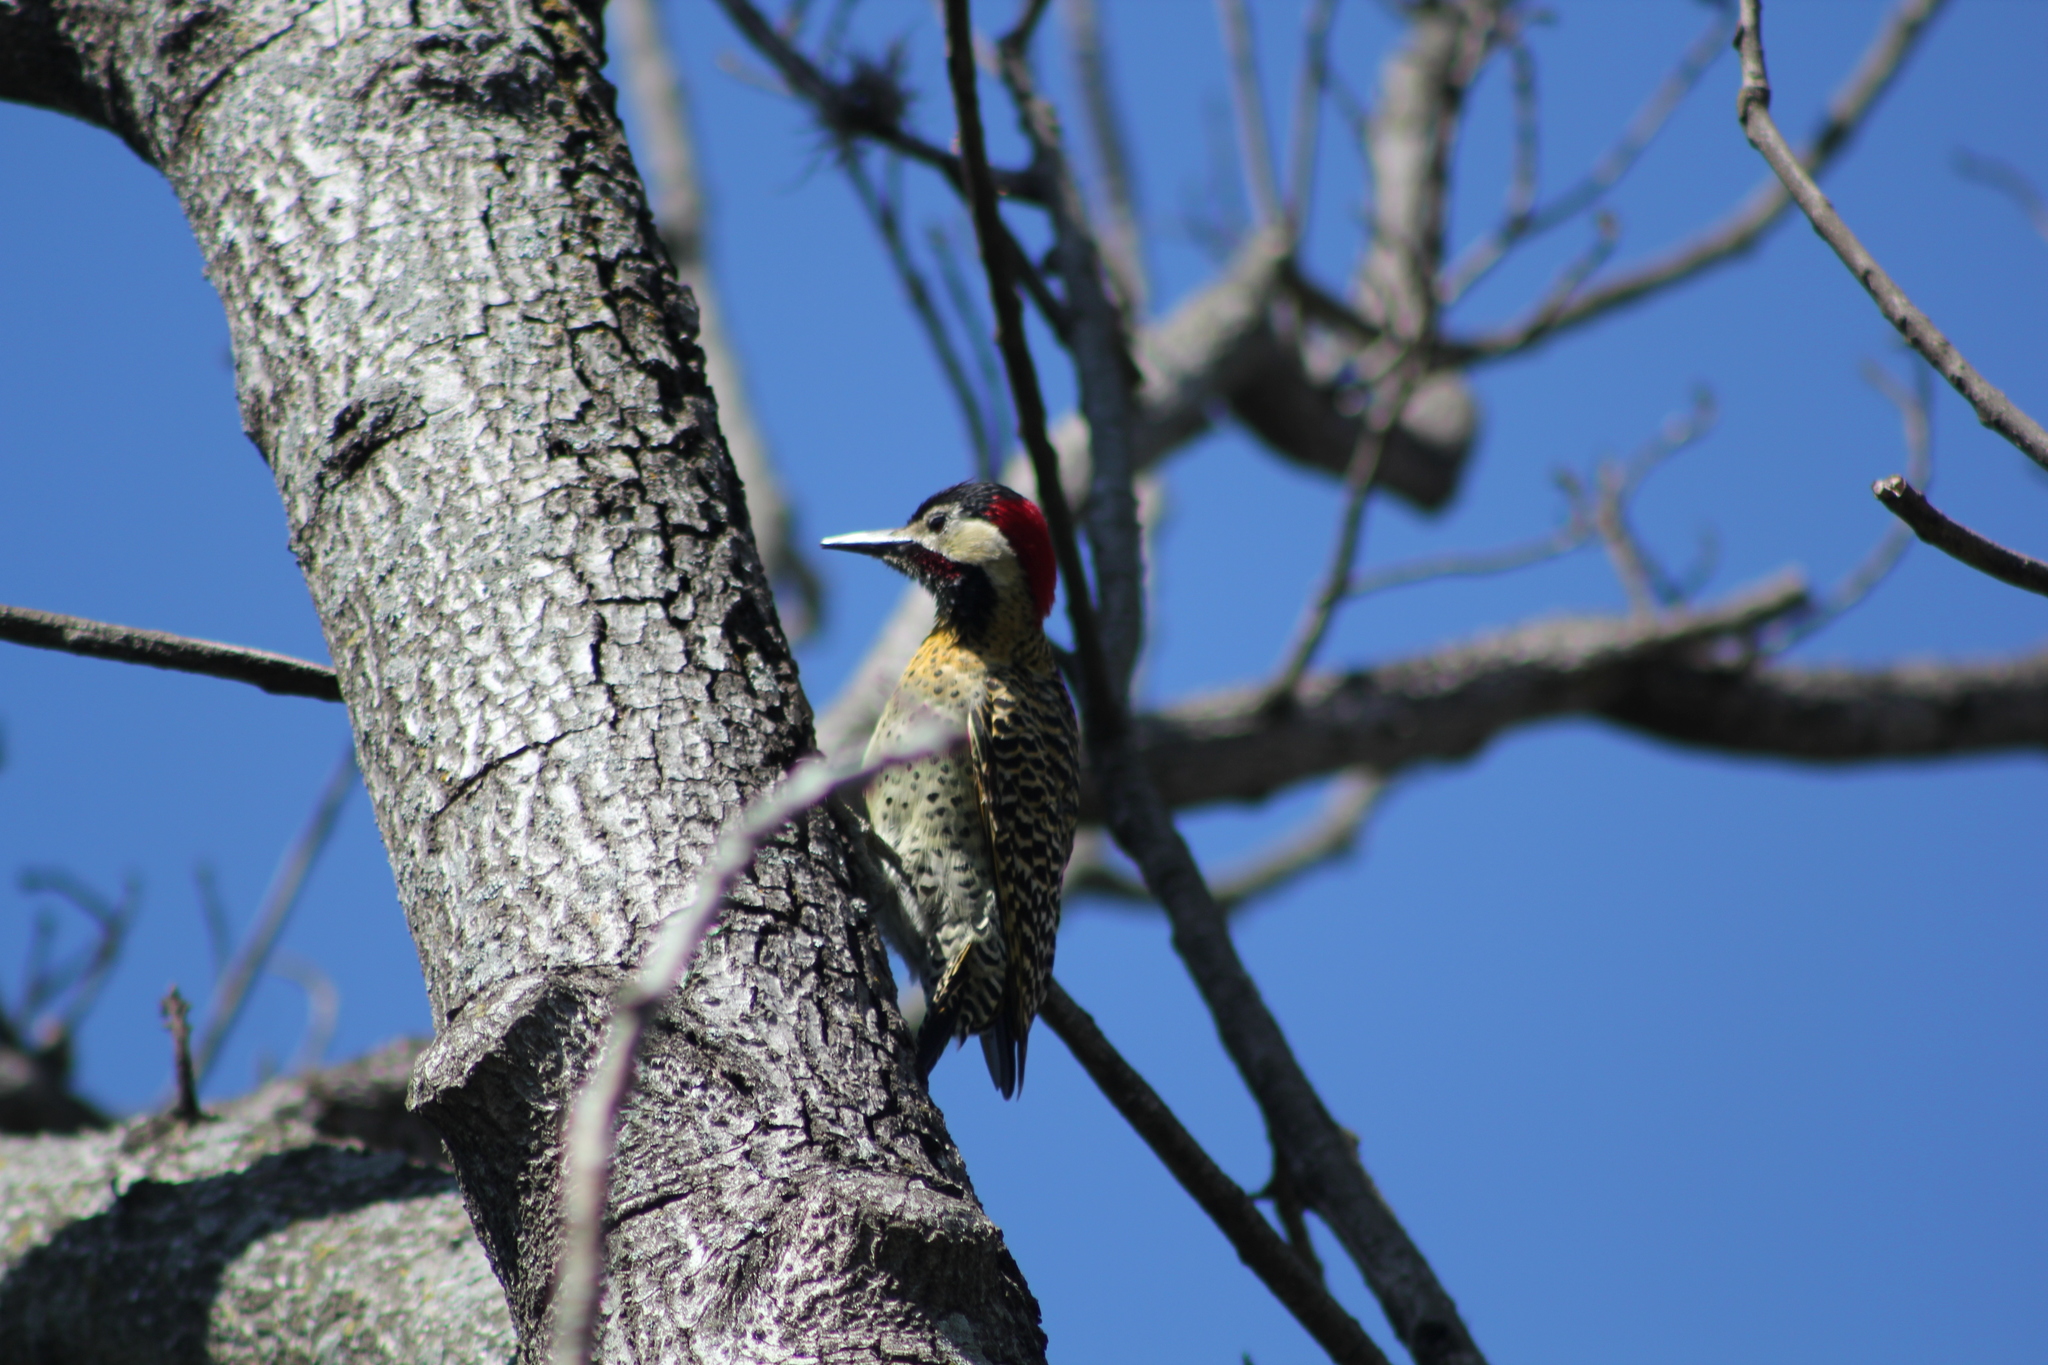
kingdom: Animalia
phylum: Chordata
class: Aves
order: Piciformes
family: Picidae
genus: Colaptes
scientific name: Colaptes melanochloros
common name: Green-barred woodpecker
